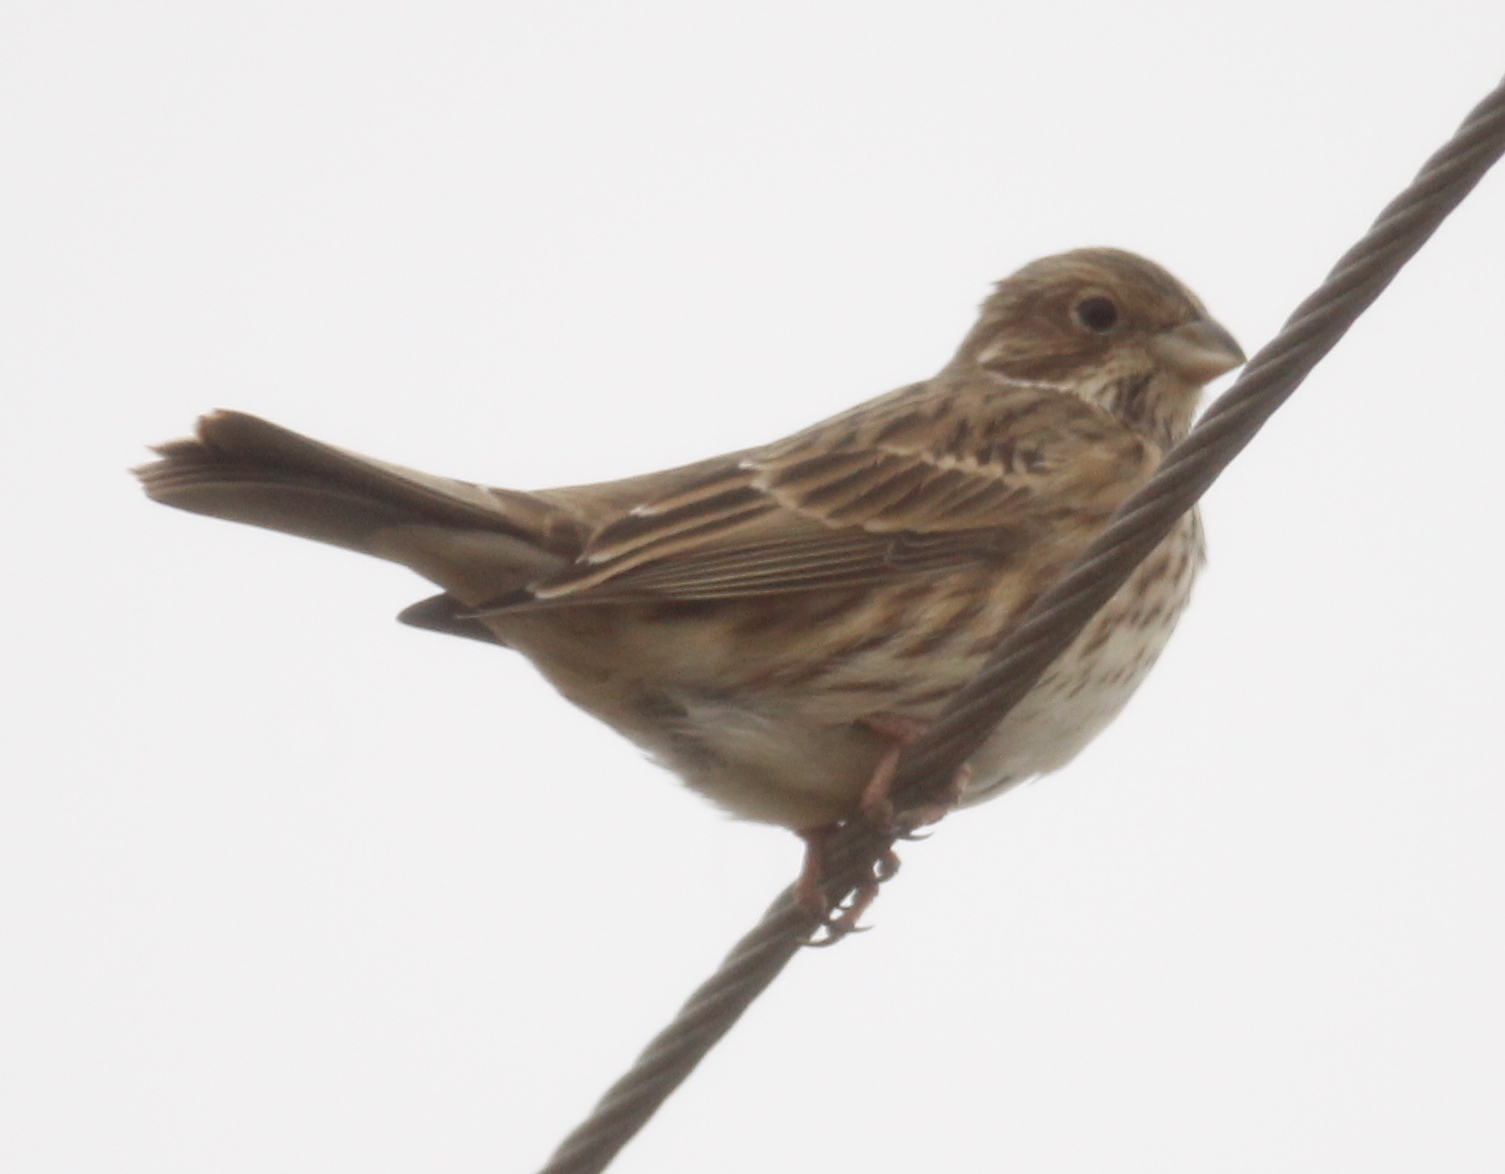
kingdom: Animalia
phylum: Chordata
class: Aves
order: Passeriformes
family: Emberizidae
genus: Emberiza
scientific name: Emberiza calandra
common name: Corn bunting
